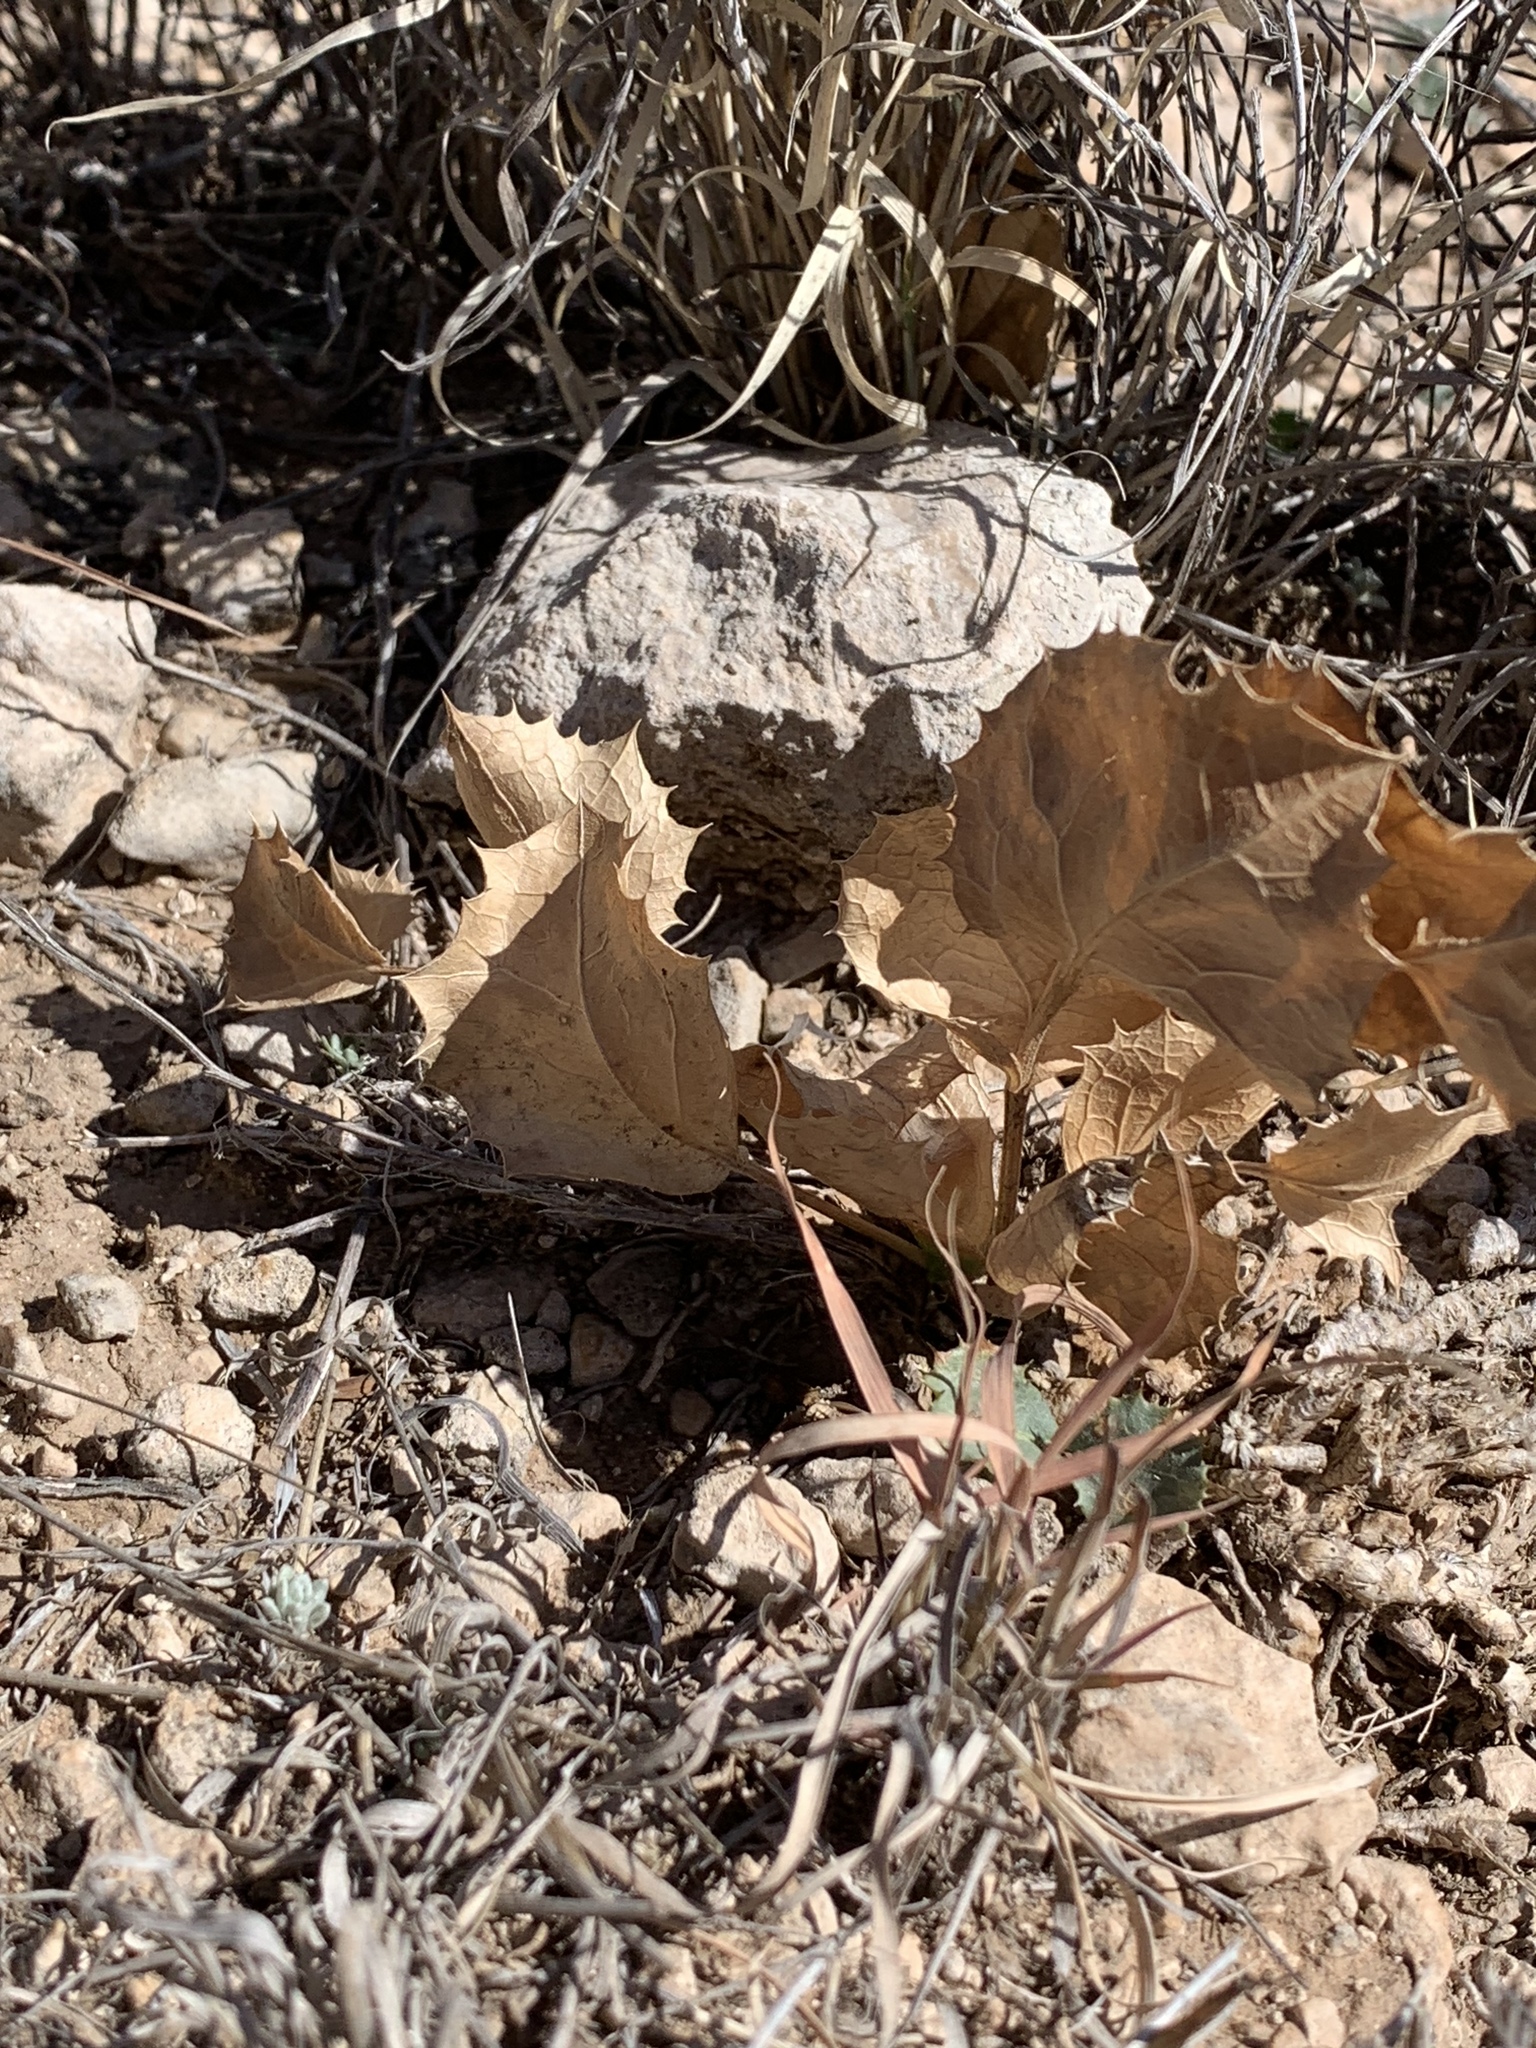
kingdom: Plantae
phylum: Tracheophyta
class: Magnoliopsida
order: Asterales
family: Asteraceae
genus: Acourtia
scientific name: Acourtia nana
